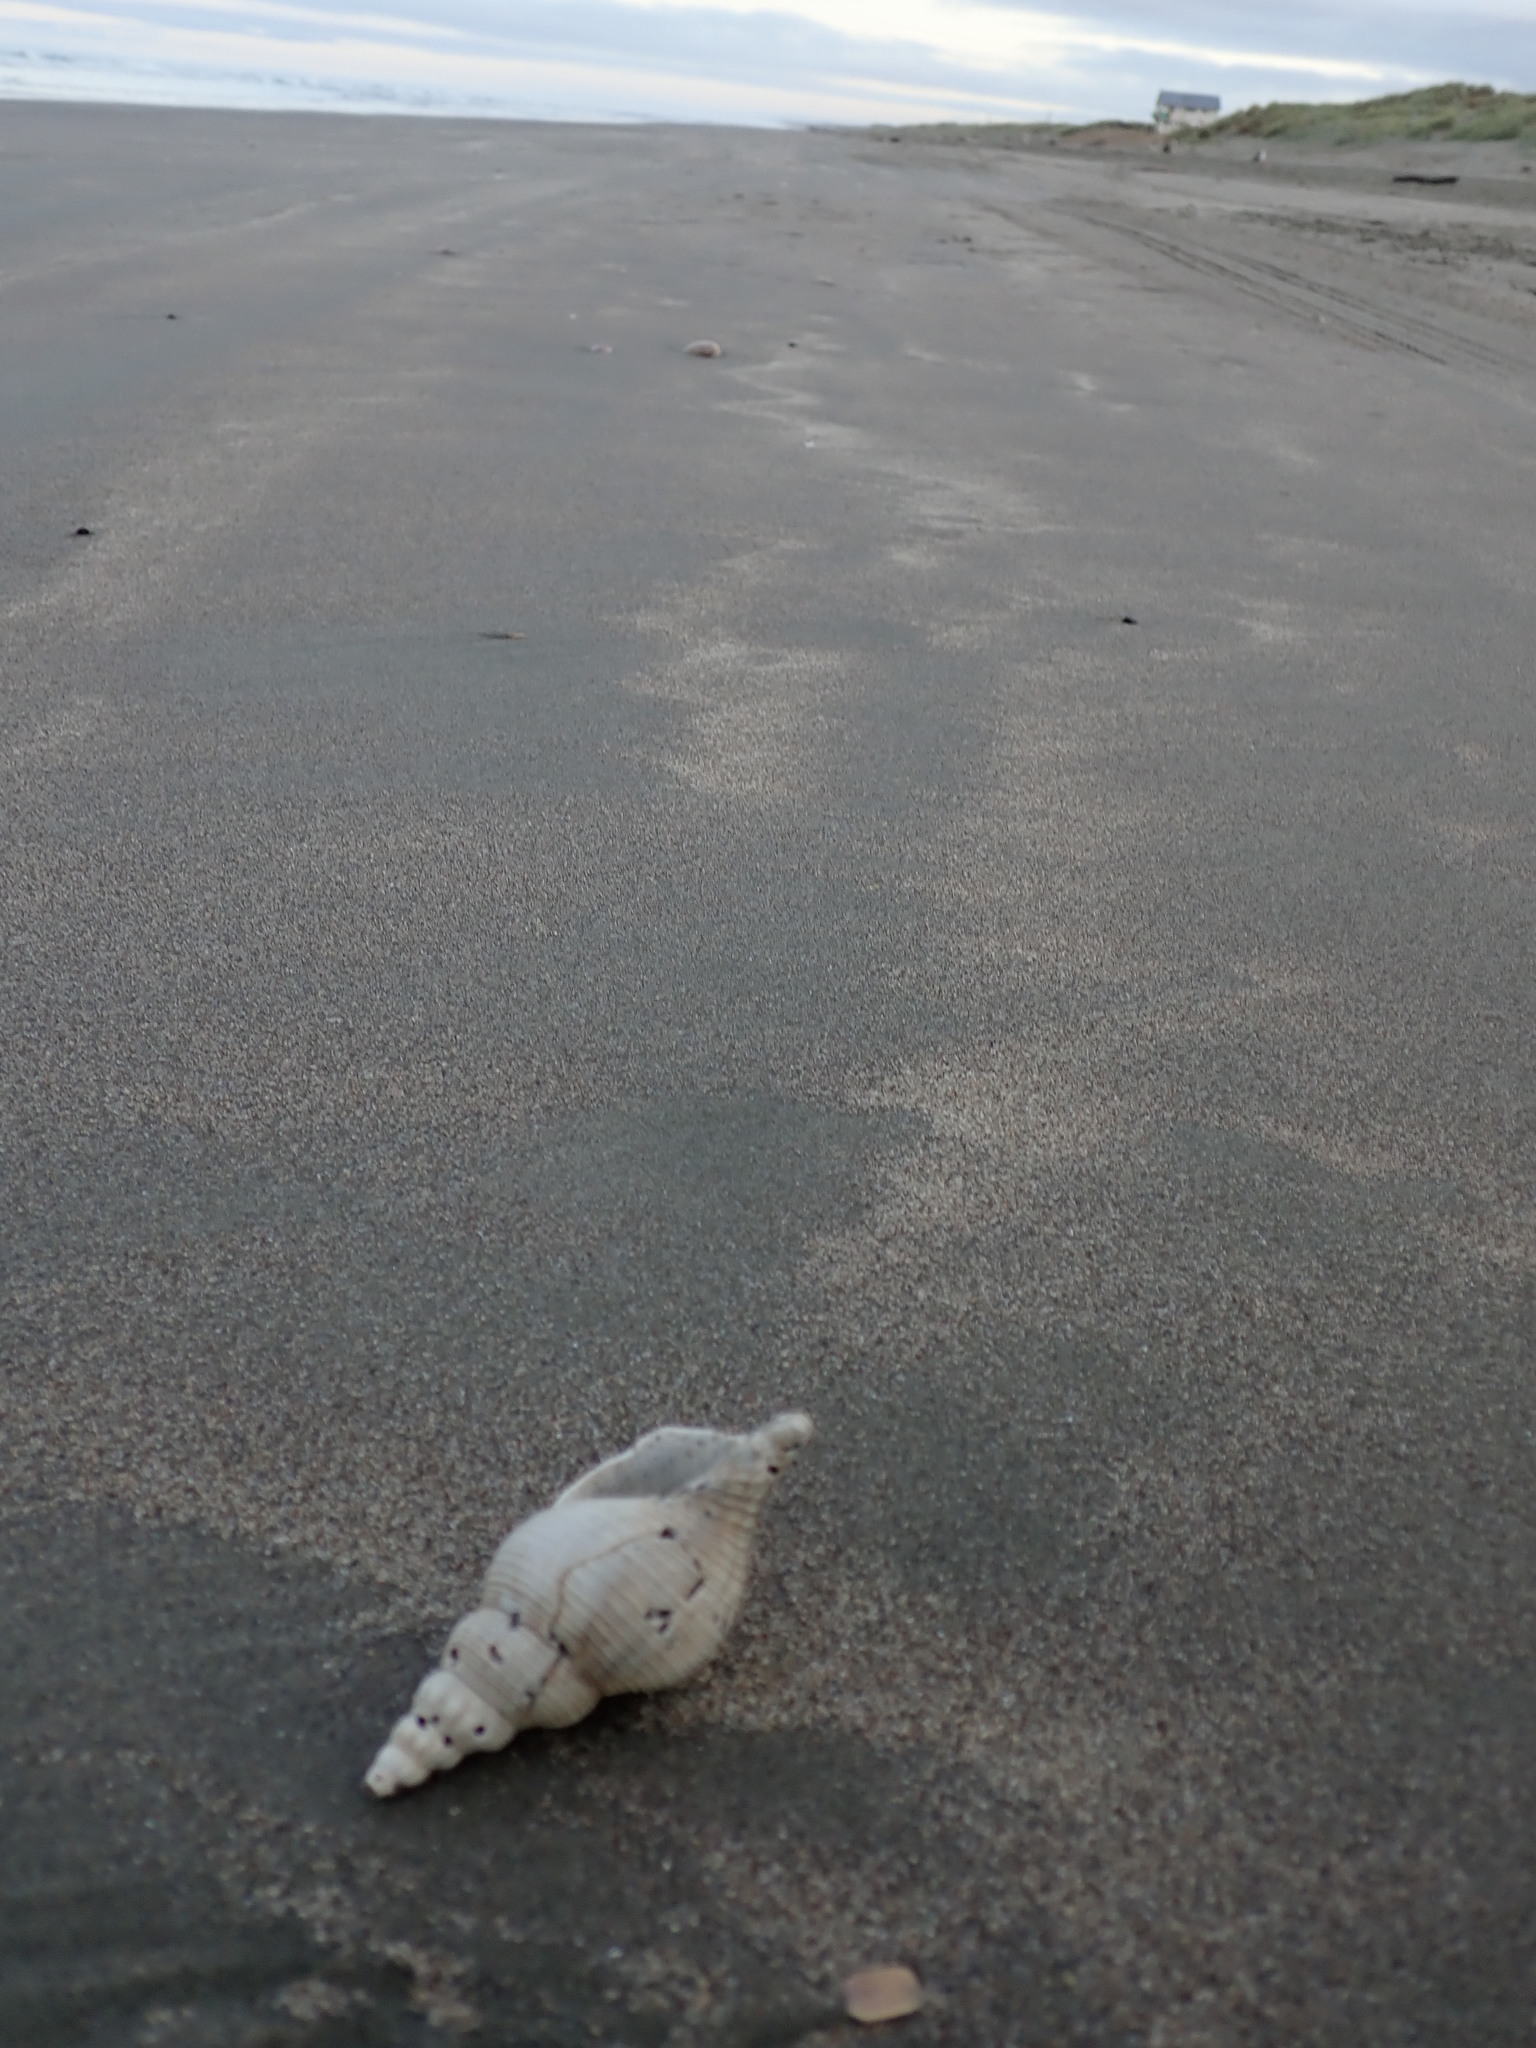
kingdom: Animalia
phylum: Mollusca
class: Gastropoda
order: Neogastropoda
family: Austrosiphonidae
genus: Penion
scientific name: Penion sulcatus
